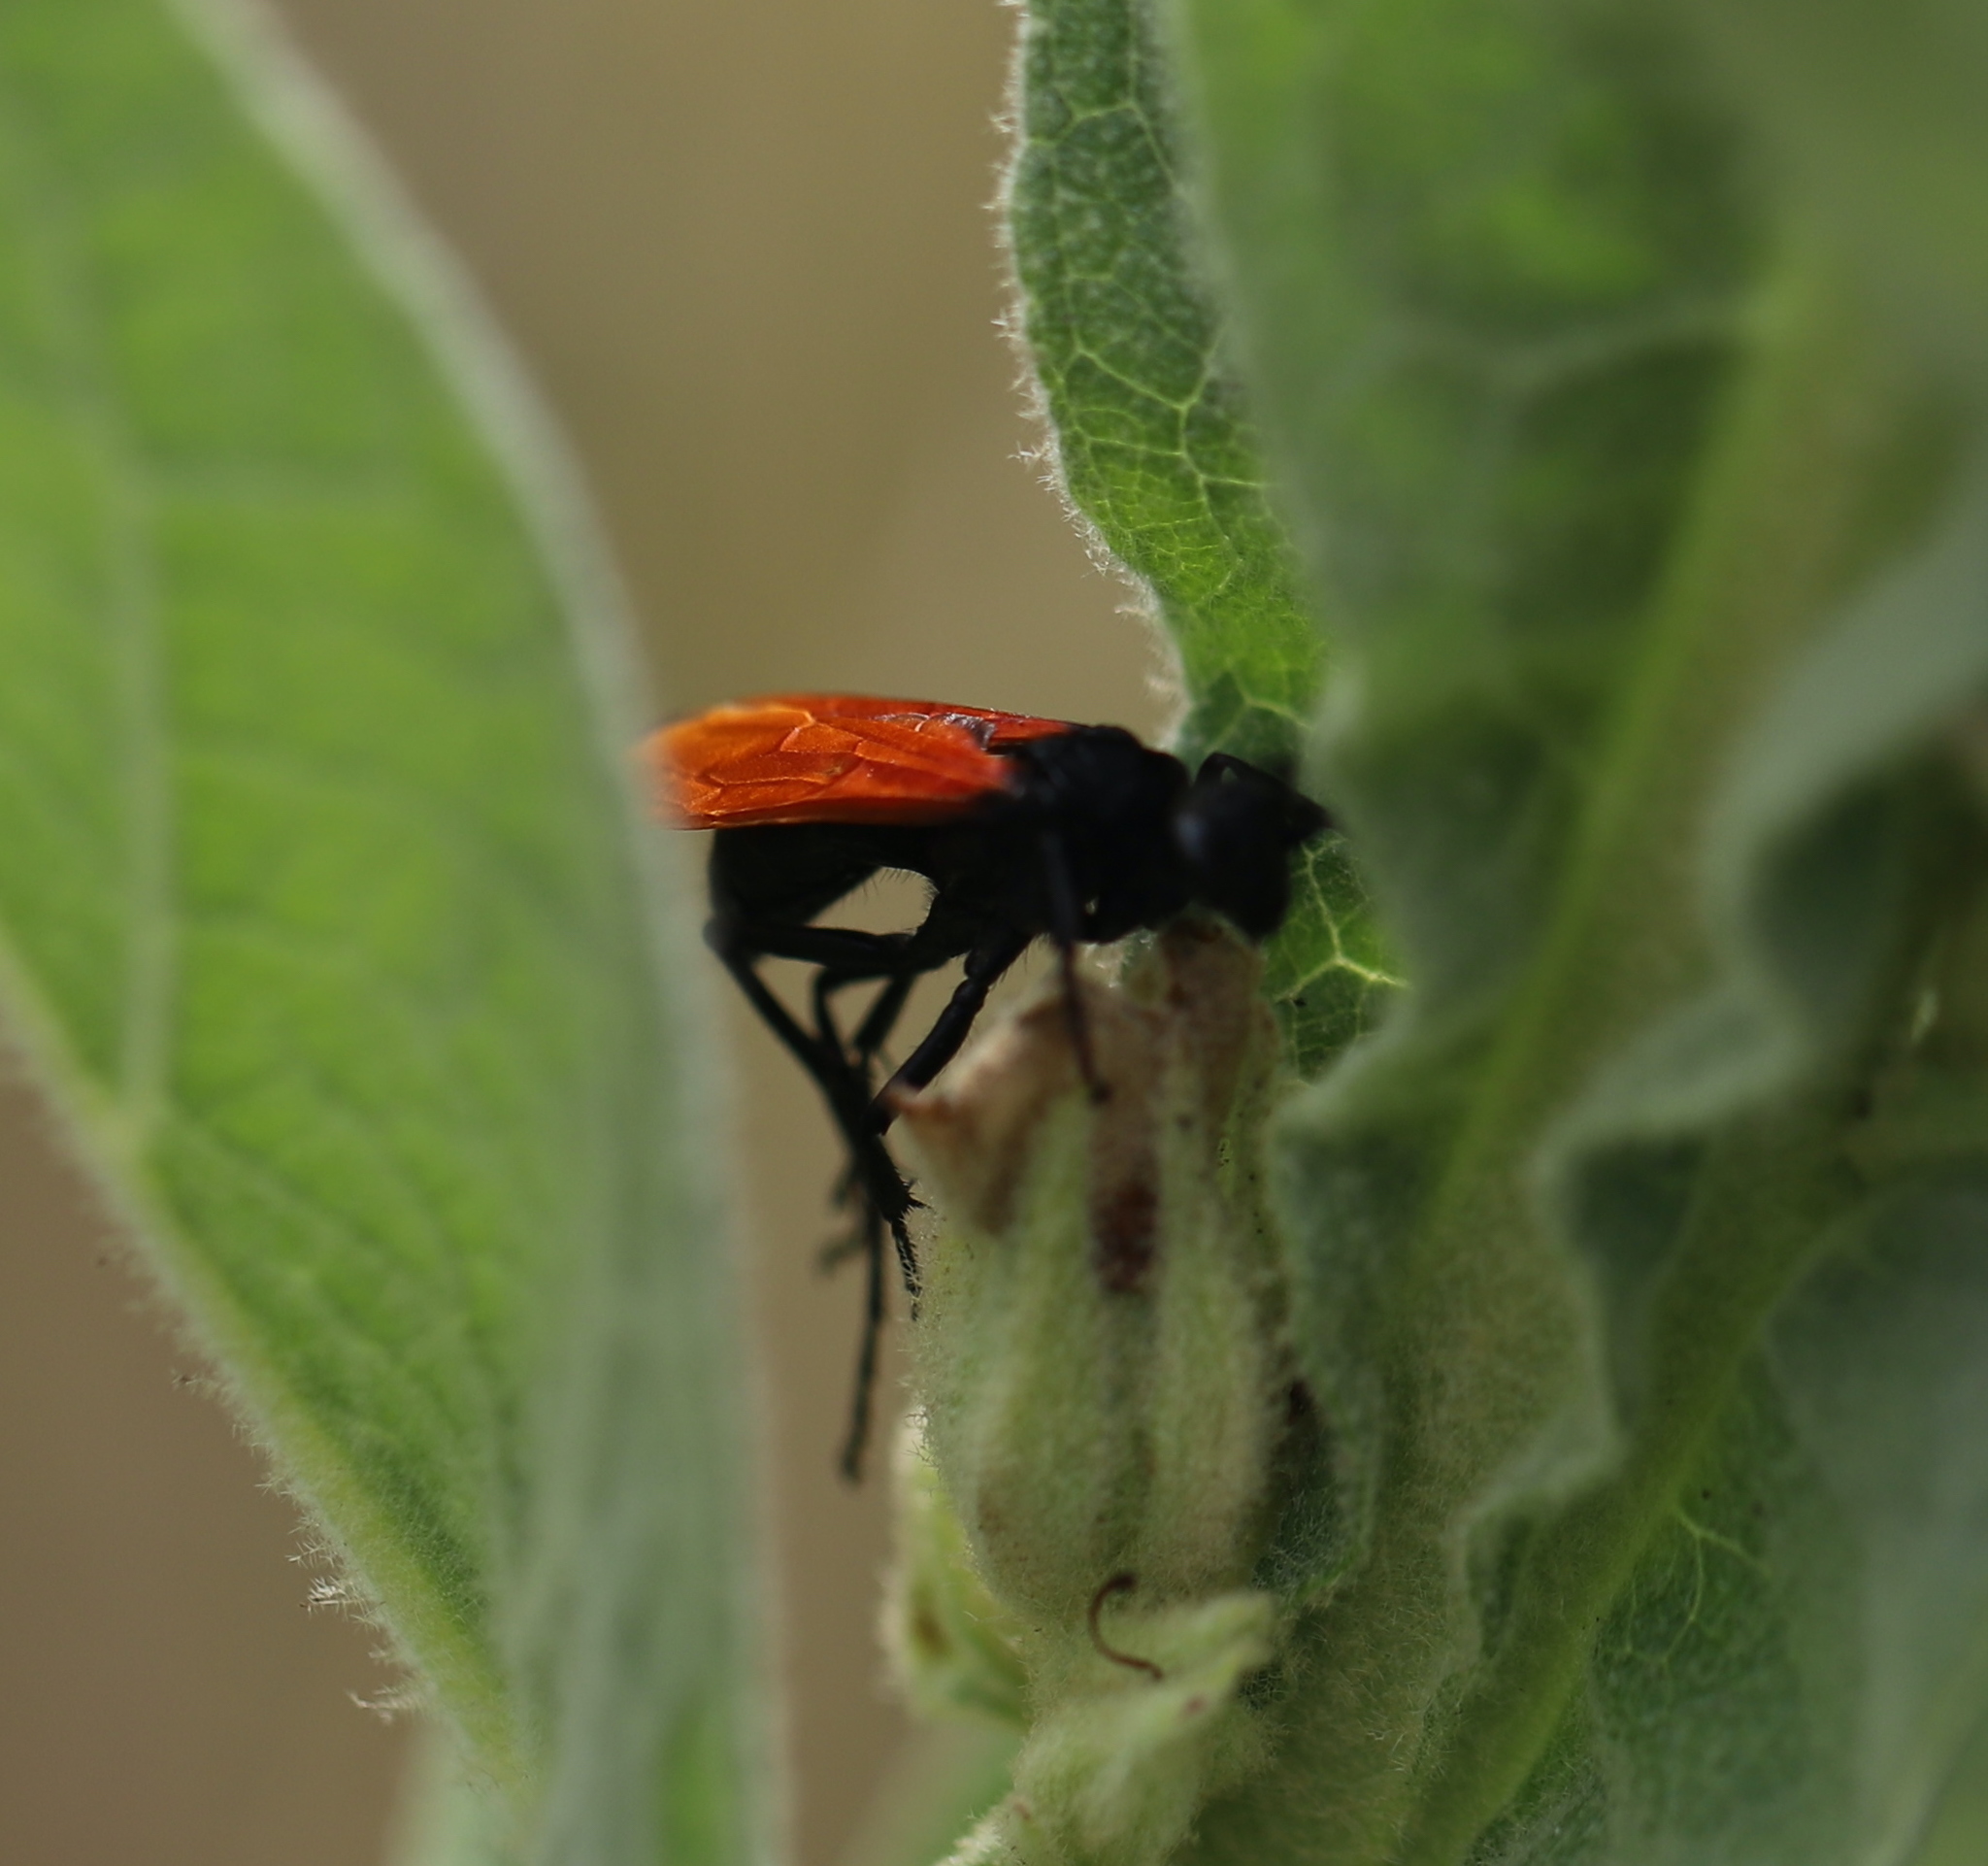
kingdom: Animalia
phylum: Arthropoda
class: Insecta
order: Hymenoptera
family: Pompilidae
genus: Chirodamus
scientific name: Chirodamus pyrrhomelas
